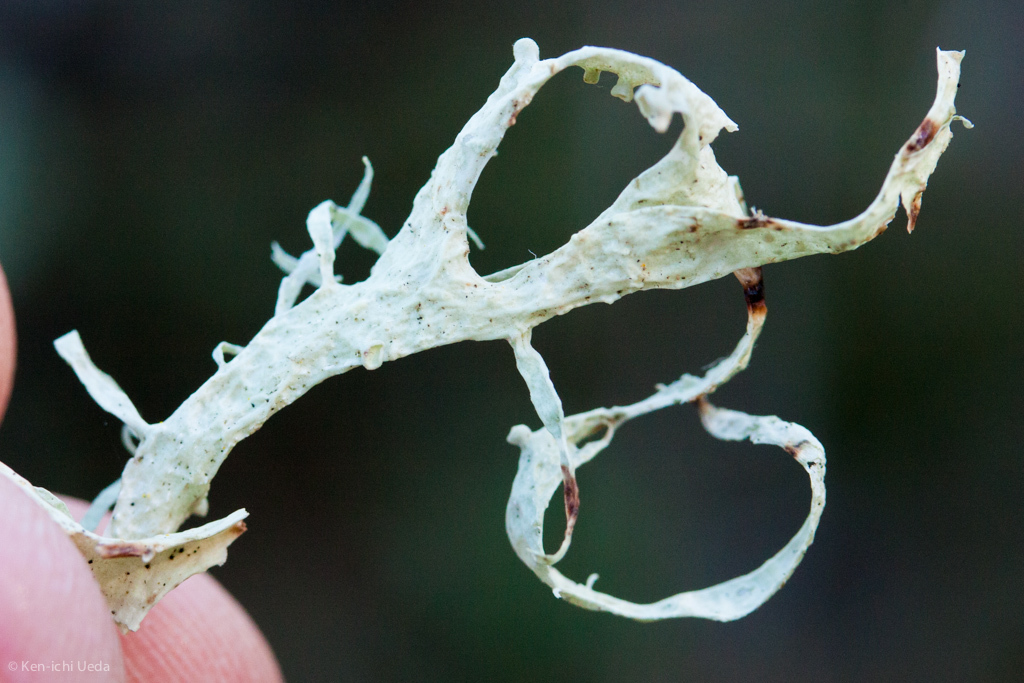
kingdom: Fungi
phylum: Ascomycota
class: Lecanoromycetes
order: Lecanorales
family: Ramalinaceae
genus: Ramalina
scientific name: Ramalina leptocarpha
